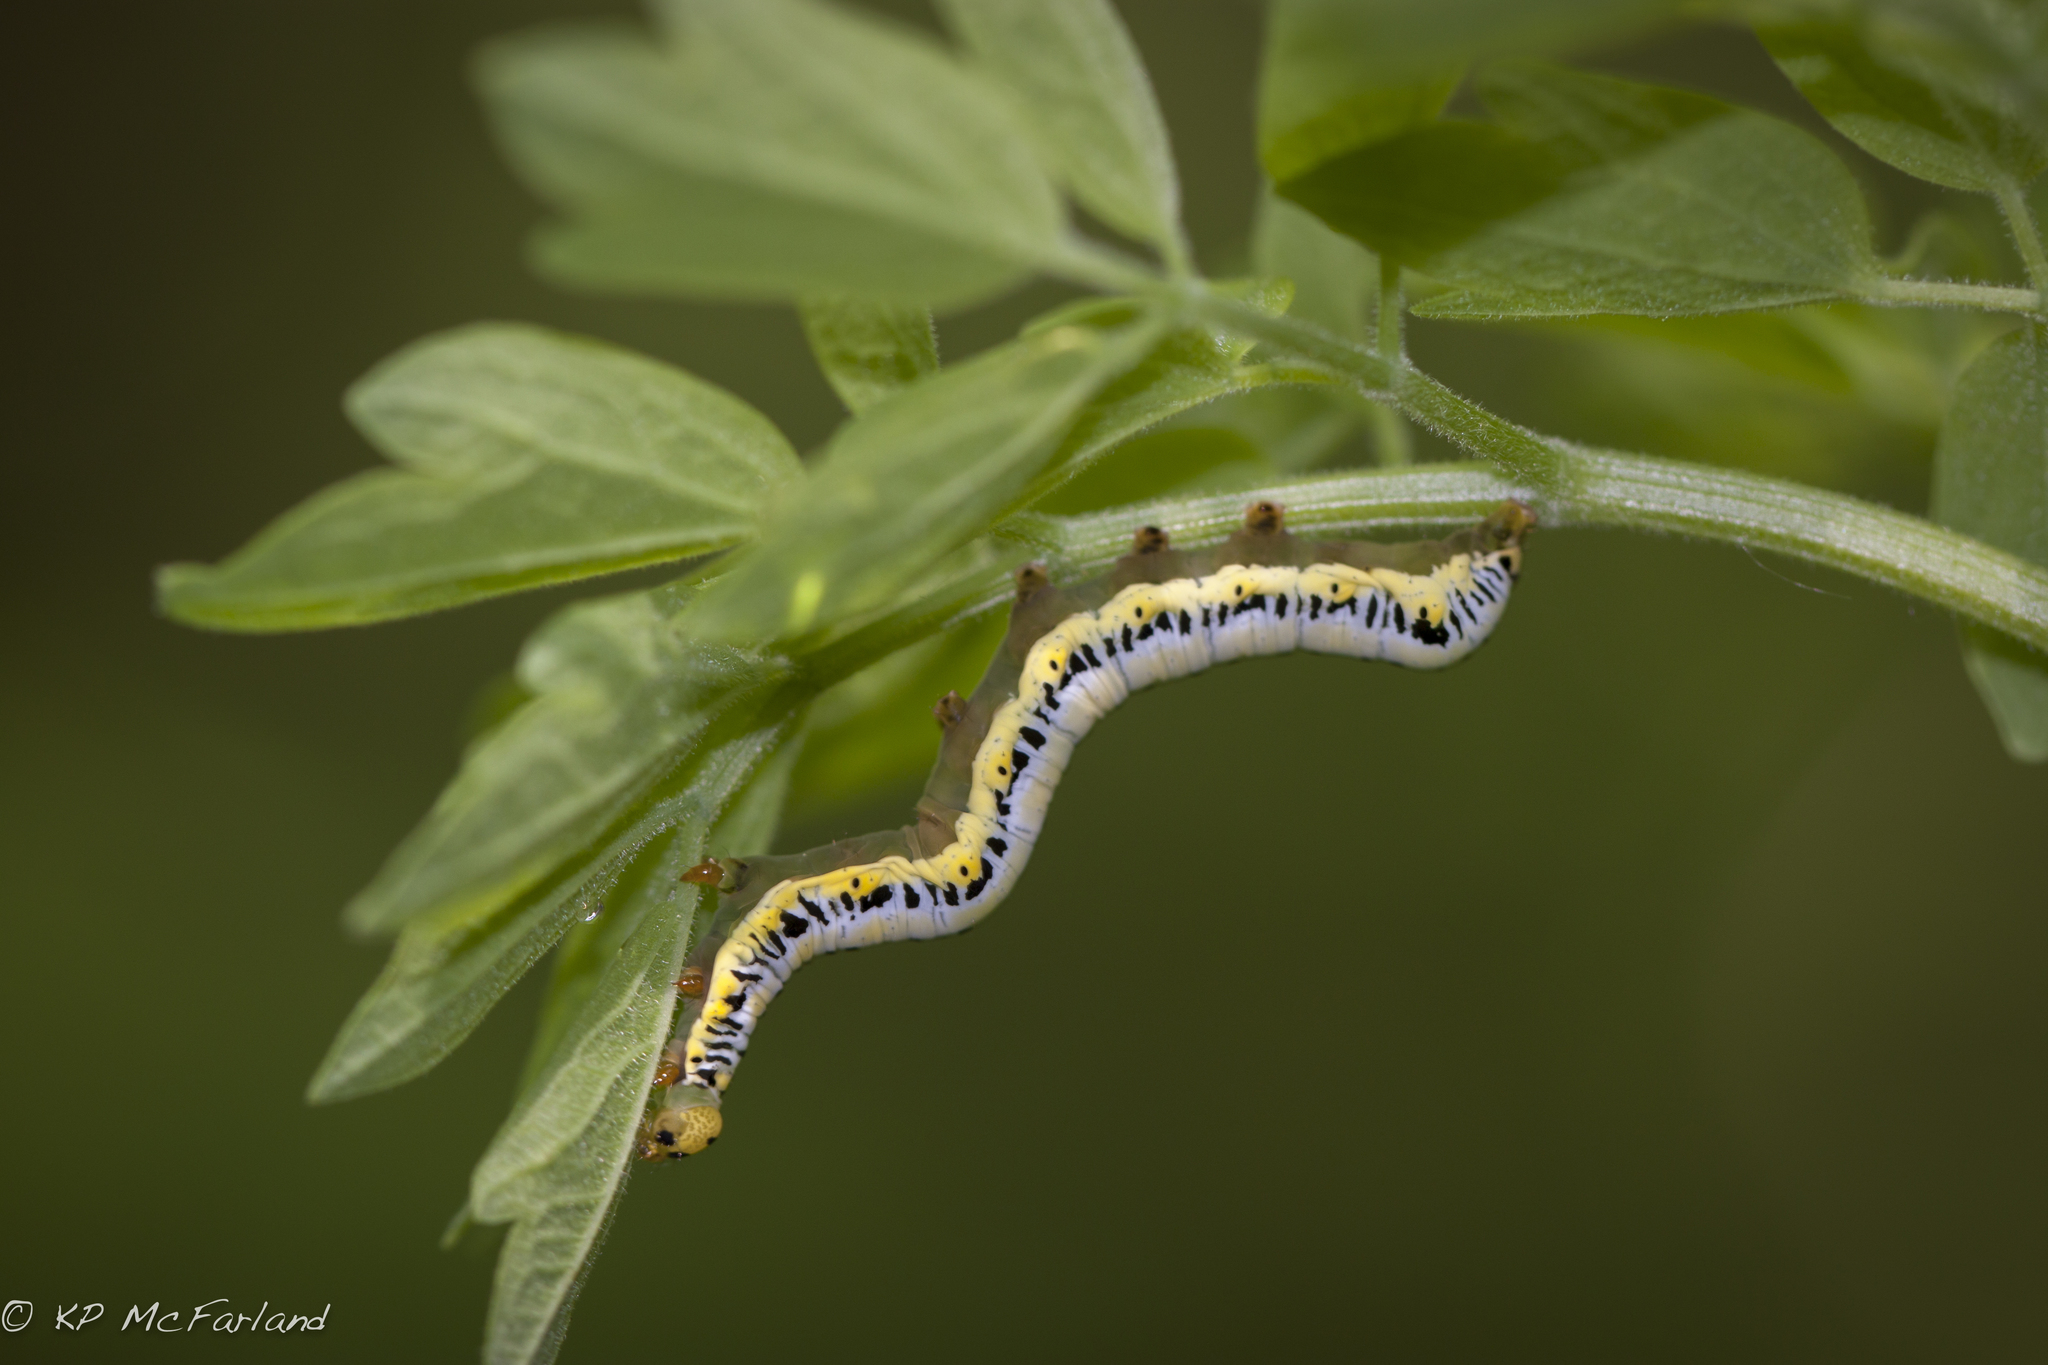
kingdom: Animalia
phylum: Arthropoda
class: Insecta
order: Lepidoptera
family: Erebidae
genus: Calyptra
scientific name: Calyptra canadensis
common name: Canadian owlet
